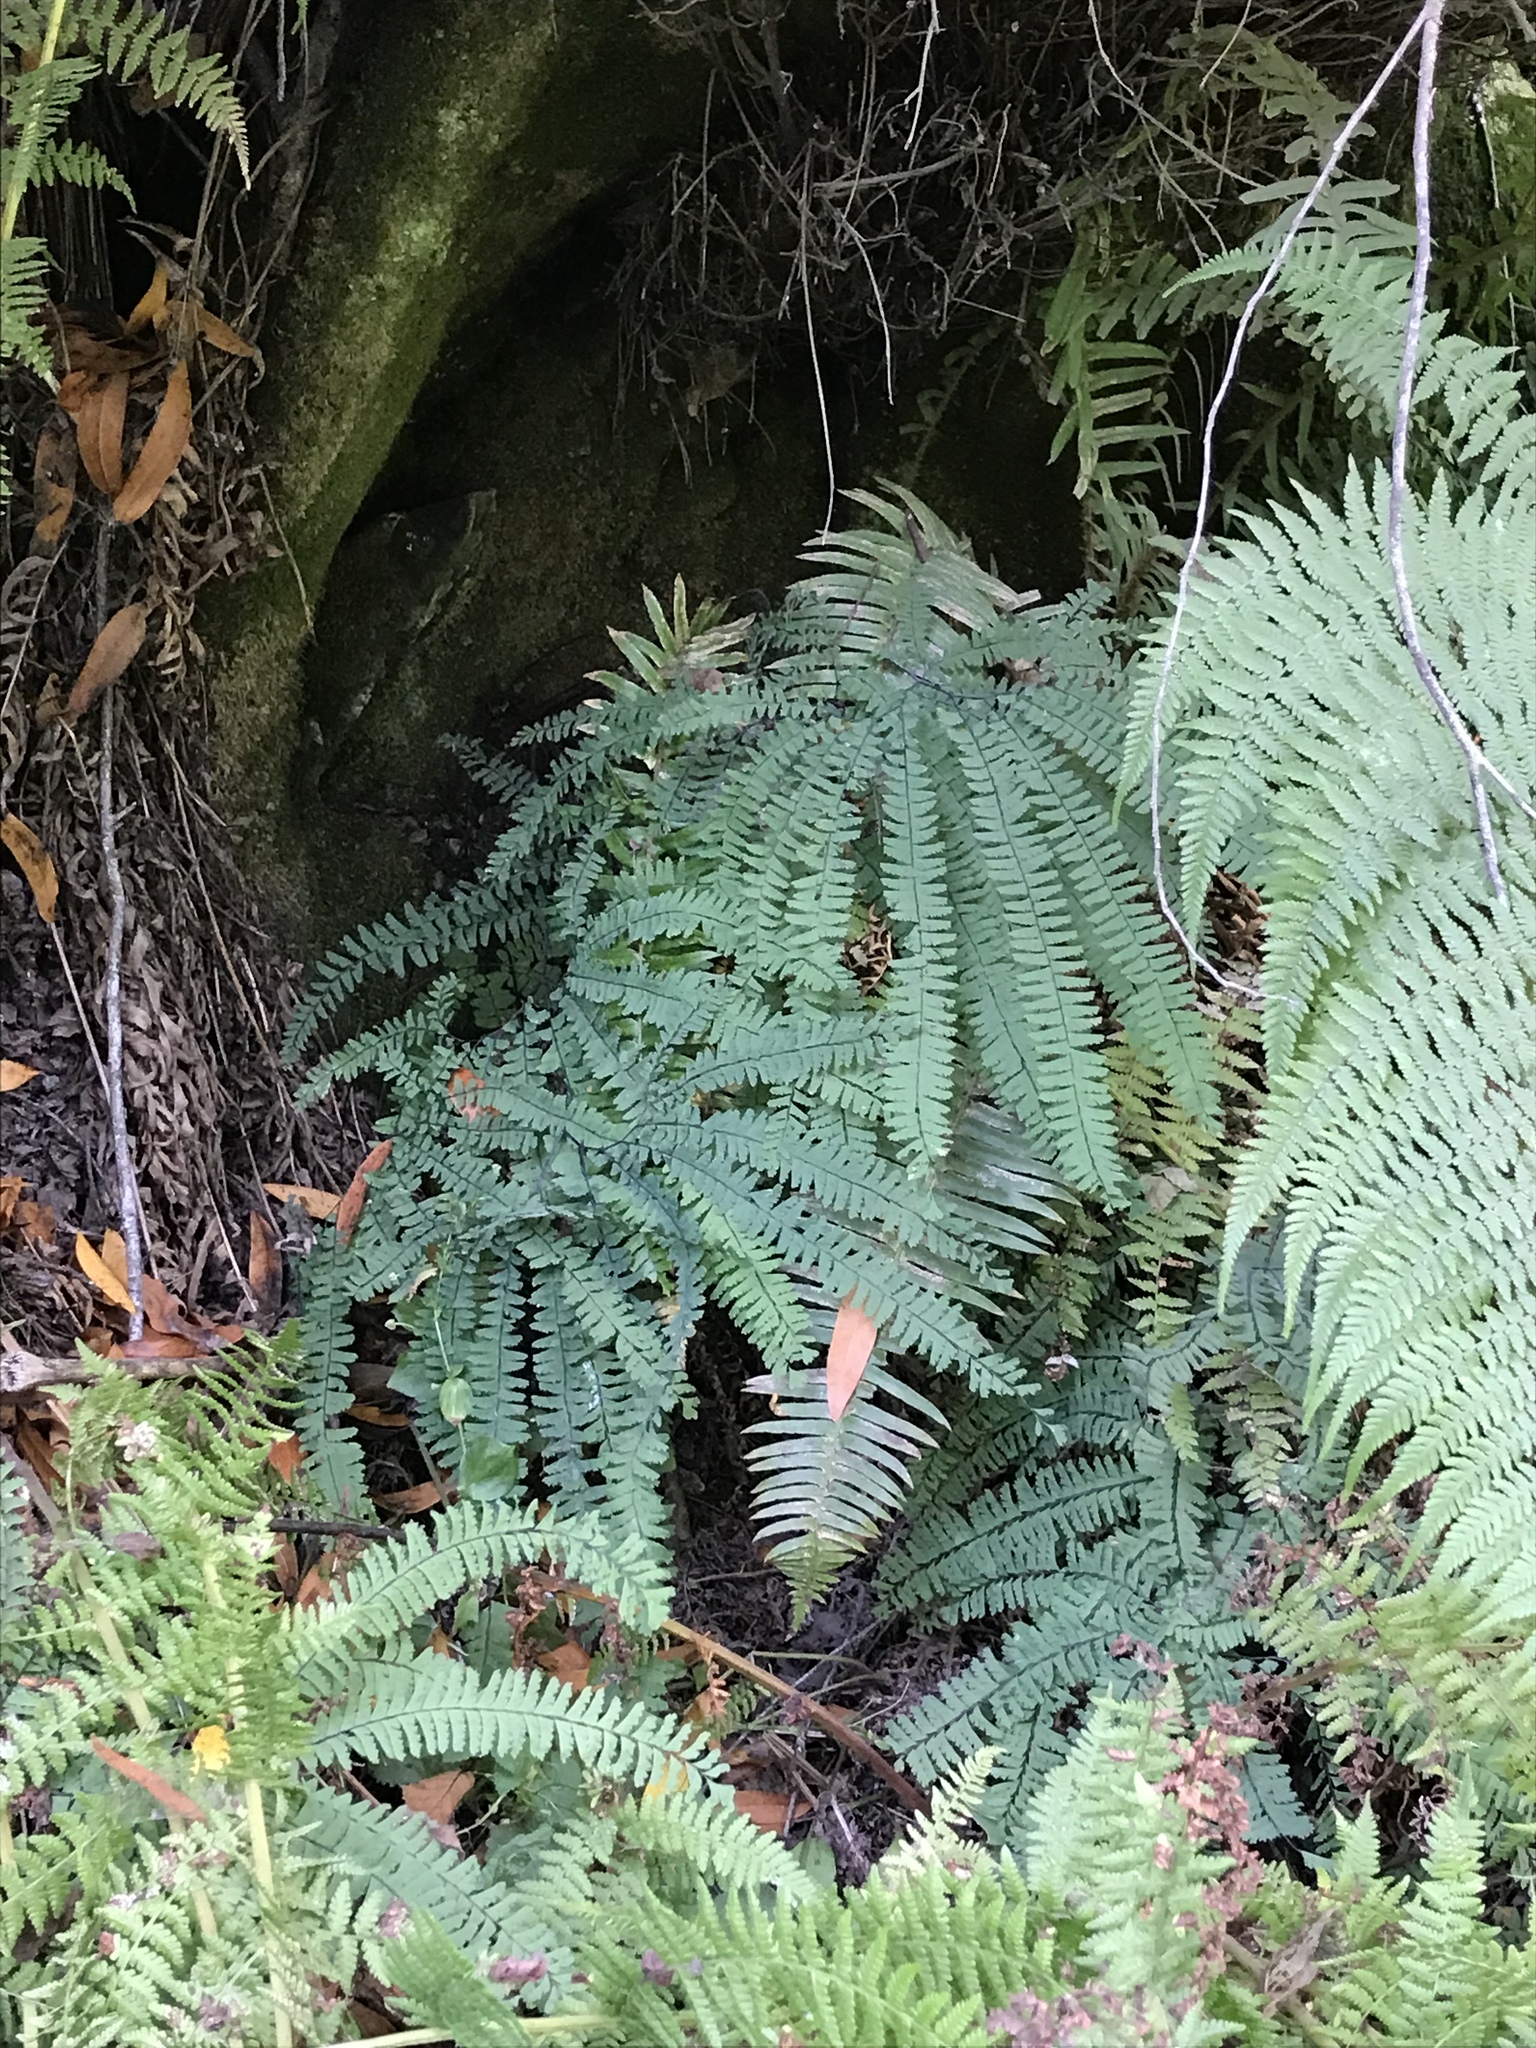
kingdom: Plantae
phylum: Tracheophyta
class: Polypodiopsida
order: Polypodiales
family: Pteridaceae
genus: Adiantum
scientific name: Adiantum aleuticum
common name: Aleutian maidenhair fern
